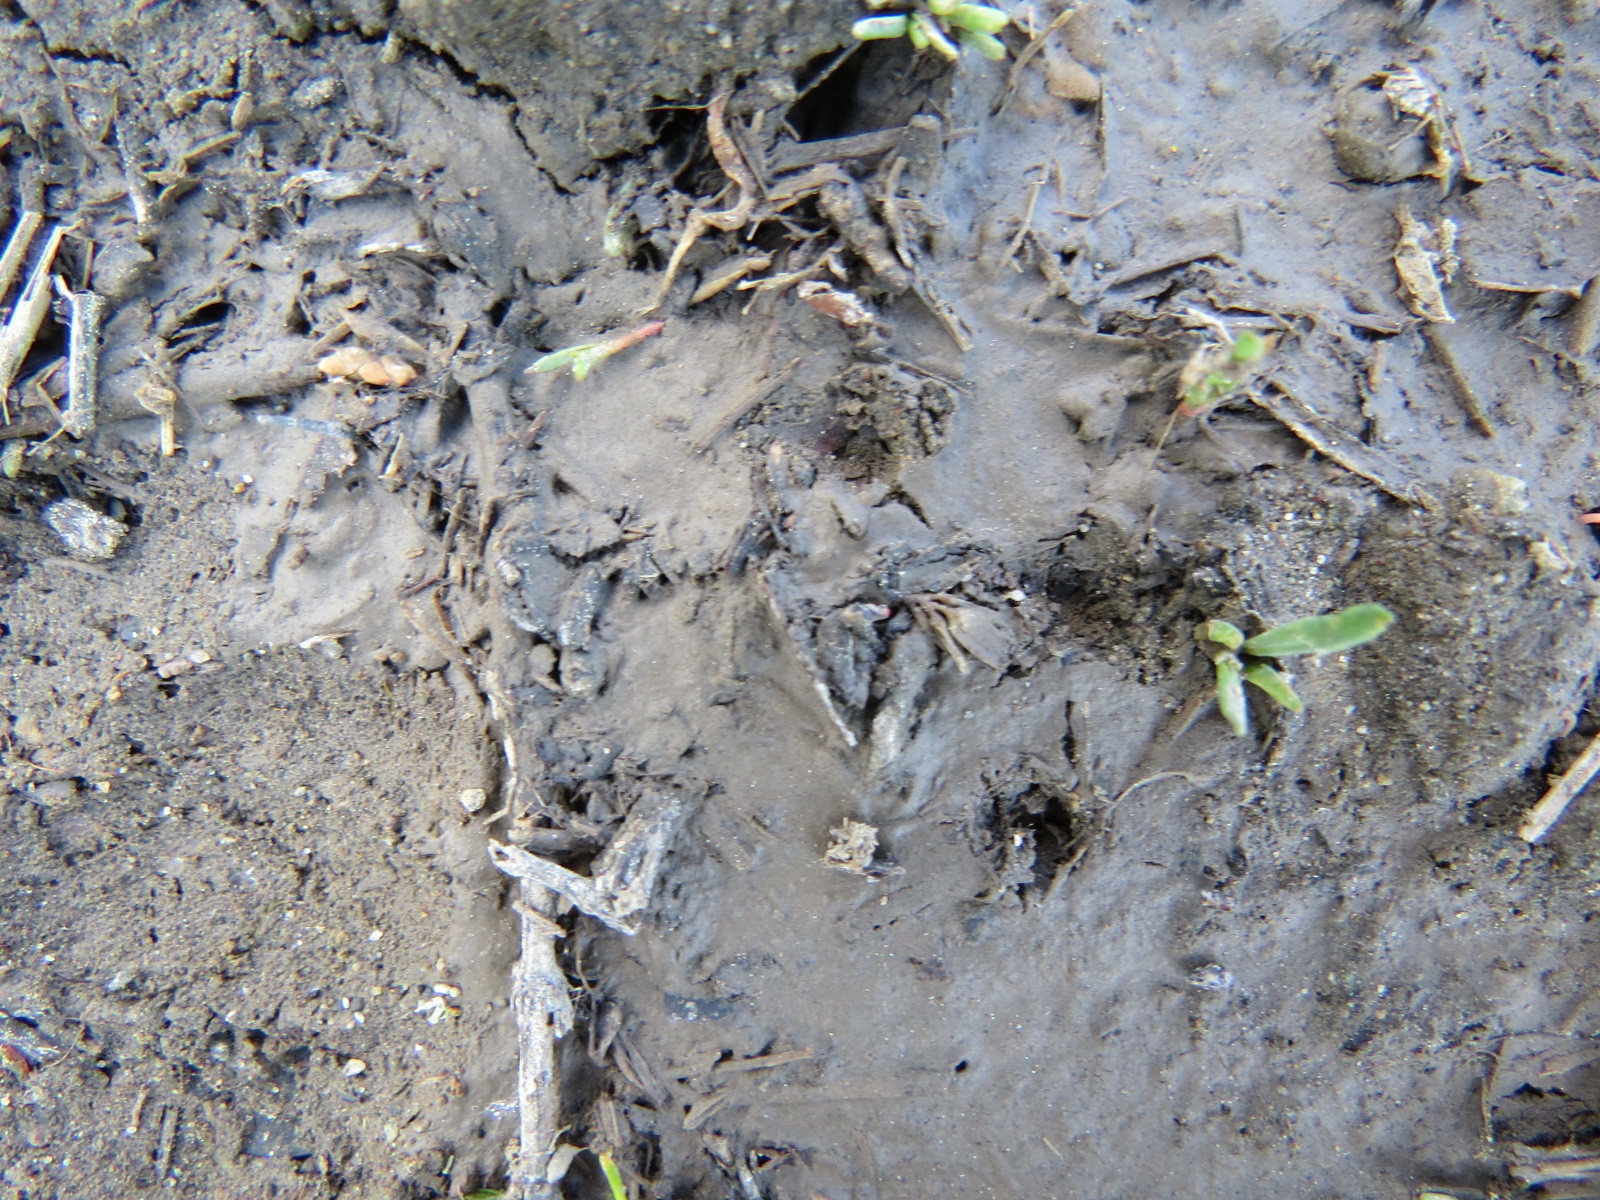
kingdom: Animalia
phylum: Chordata
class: Mammalia
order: Carnivora
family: Mustelidae
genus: Taxidea
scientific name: Taxidea taxus
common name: American badger
